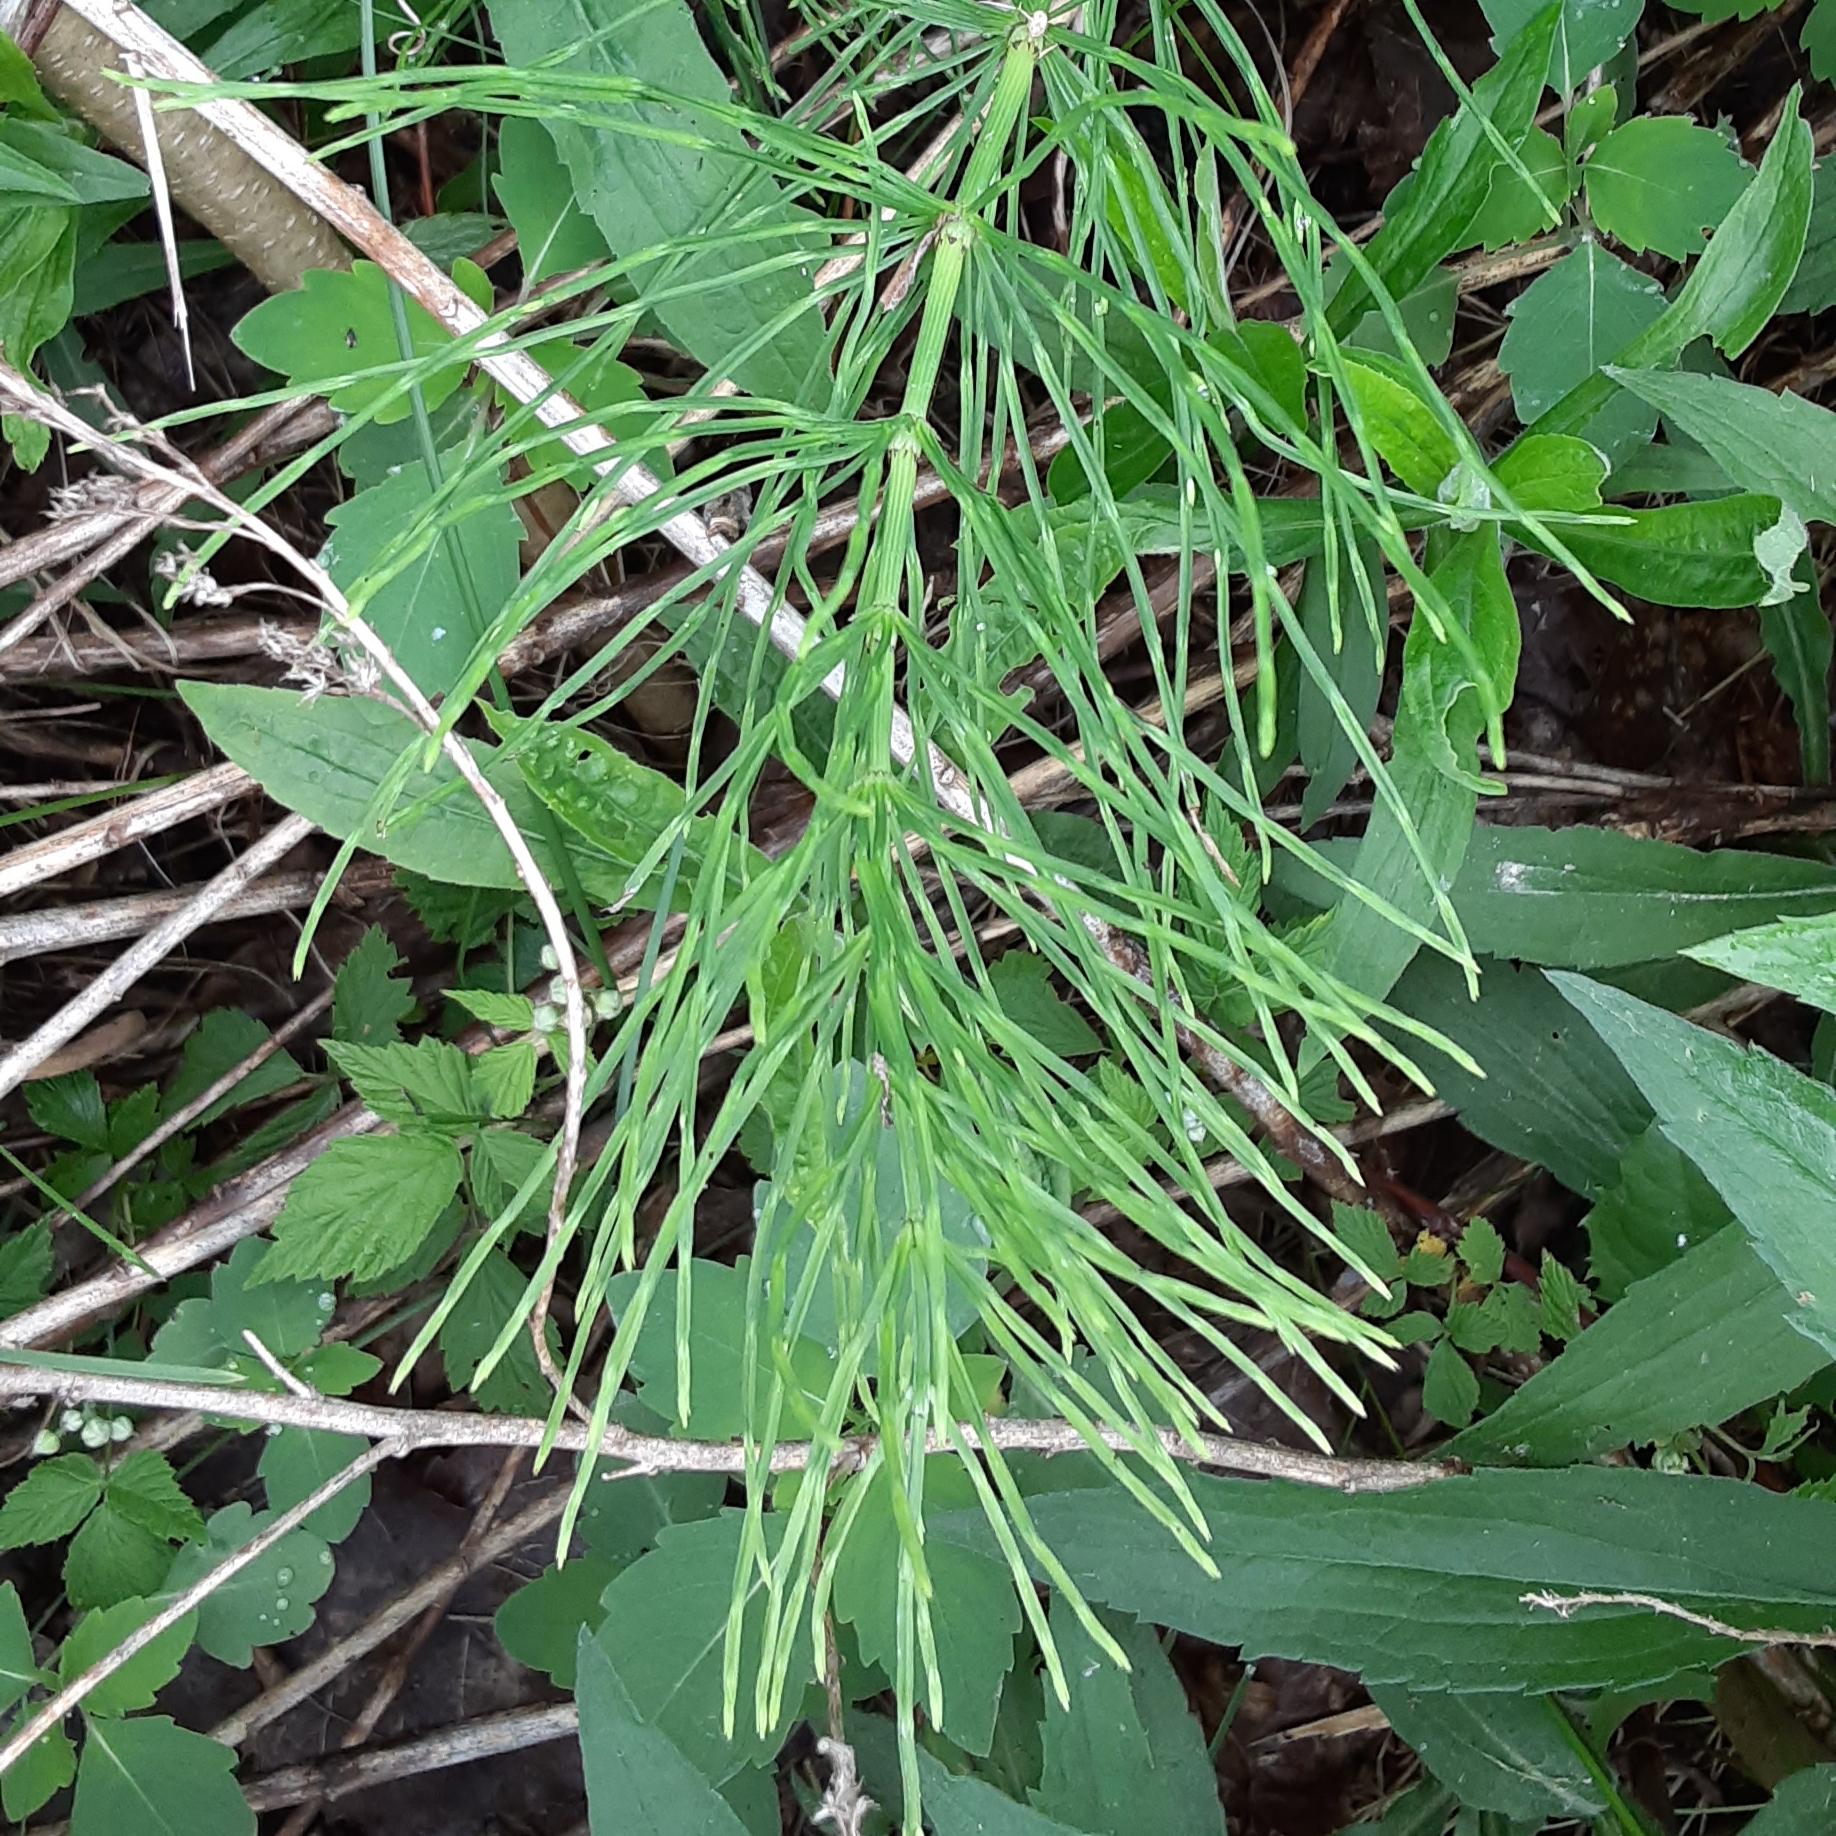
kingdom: Plantae
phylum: Tracheophyta
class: Polypodiopsida
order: Equisetales
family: Equisetaceae
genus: Equisetum
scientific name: Equisetum arvense
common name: Field horsetail
